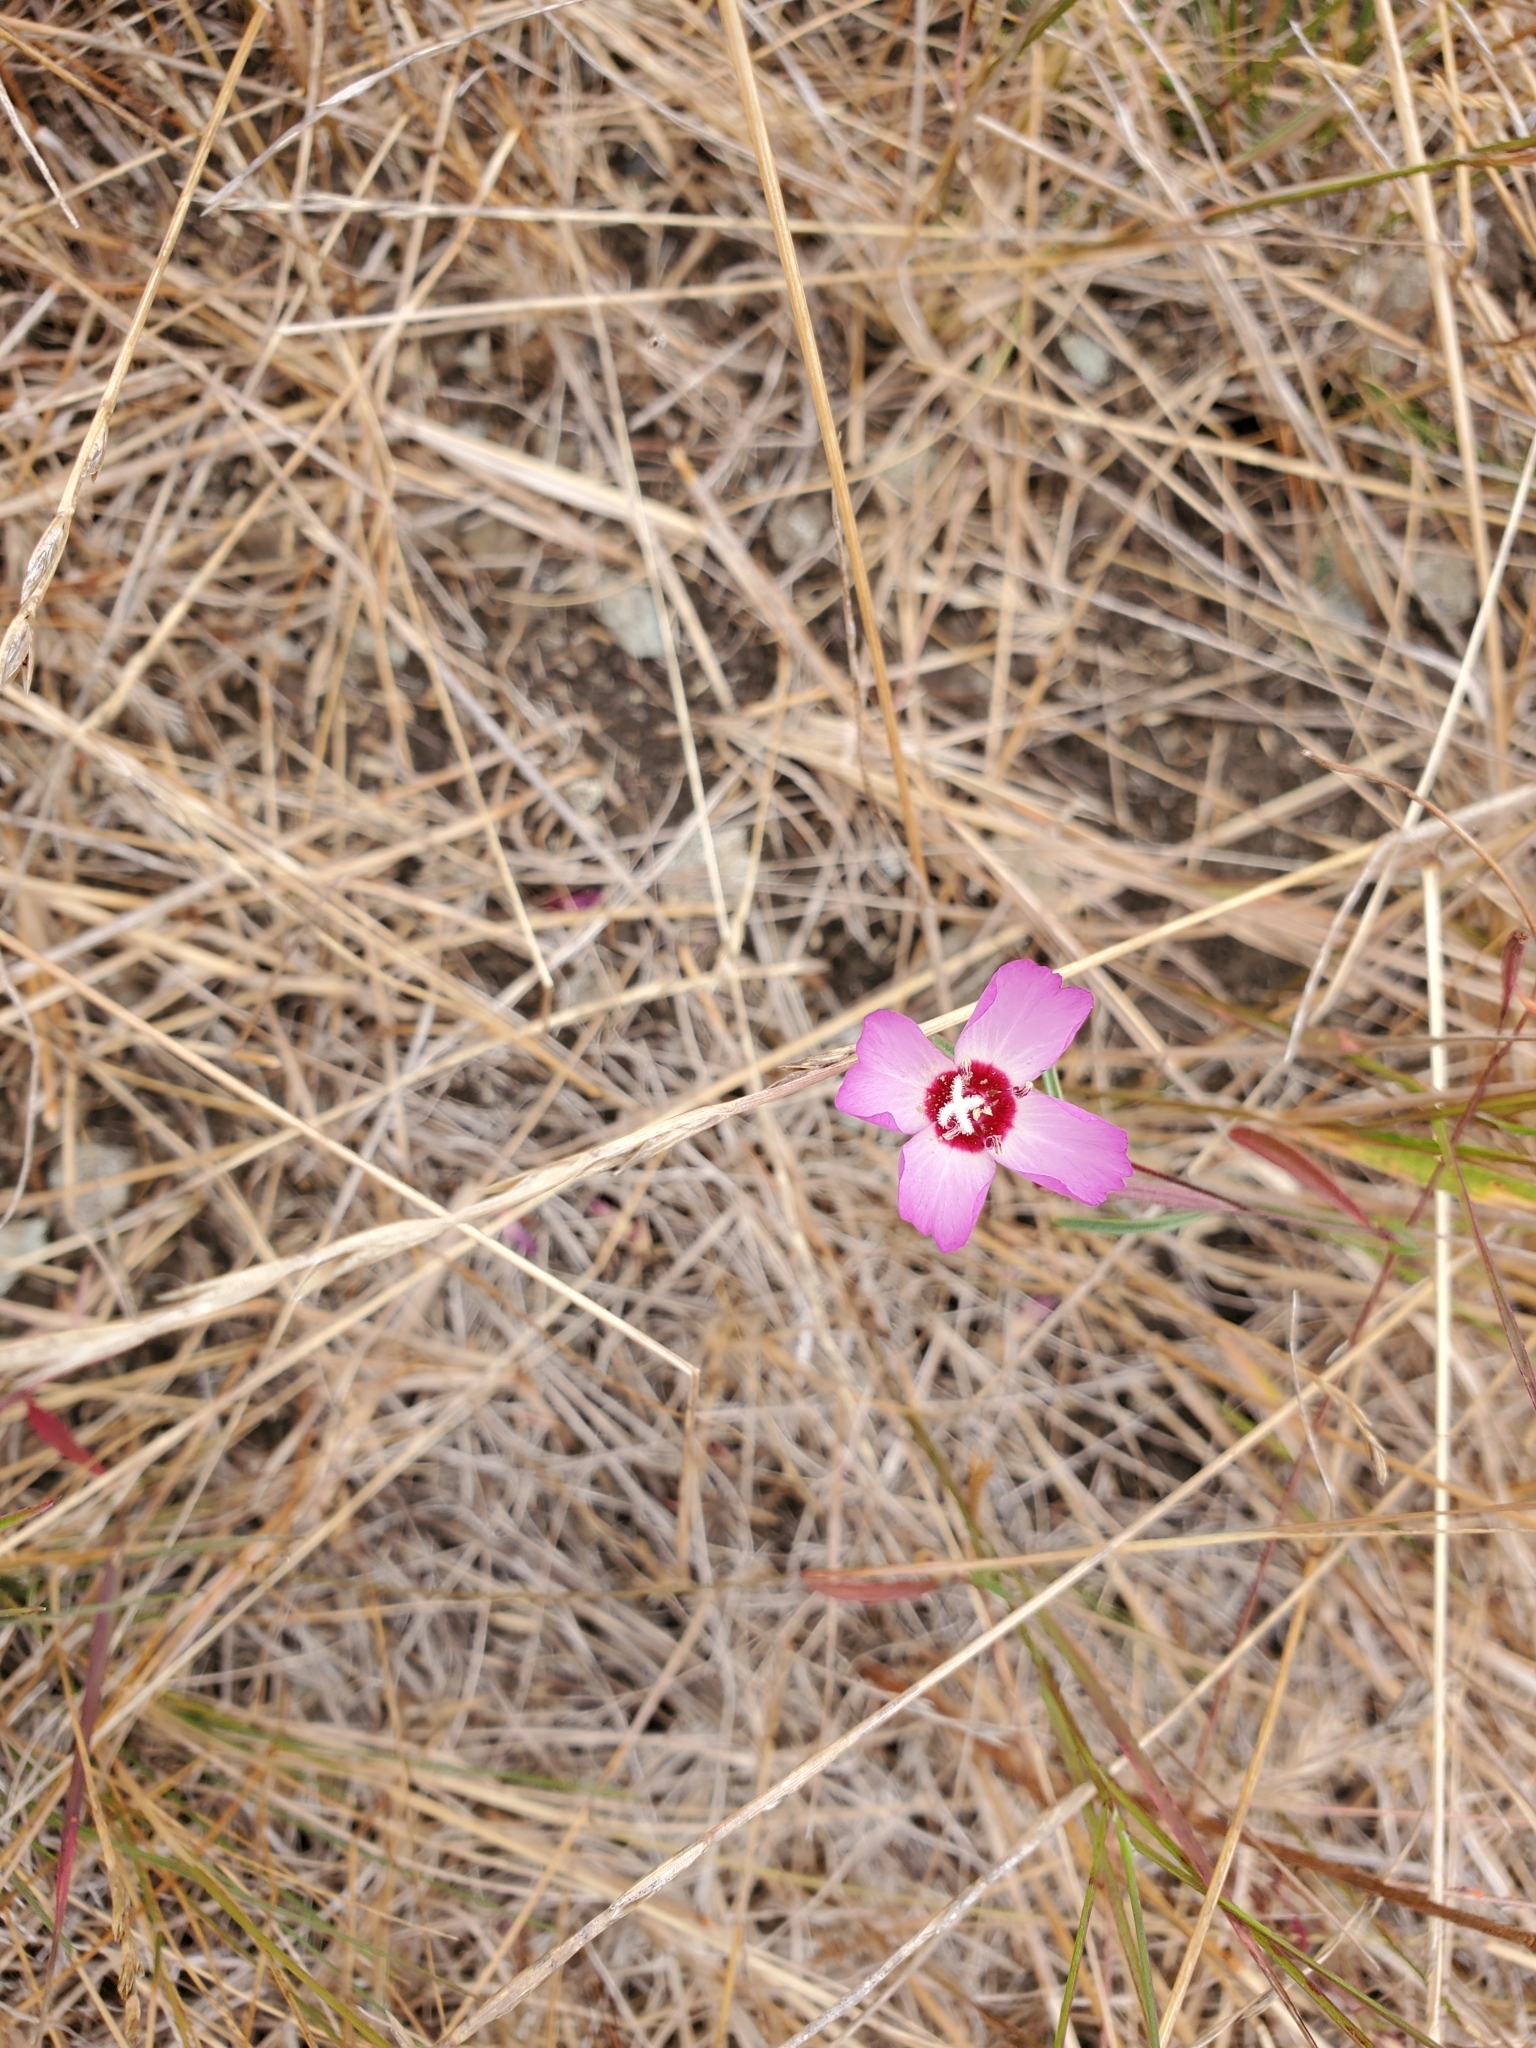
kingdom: Plantae
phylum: Tracheophyta
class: Magnoliopsida
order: Myrtales
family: Onagraceae
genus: Clarkia
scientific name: Clarkia franciscana
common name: Presidio clarkia
